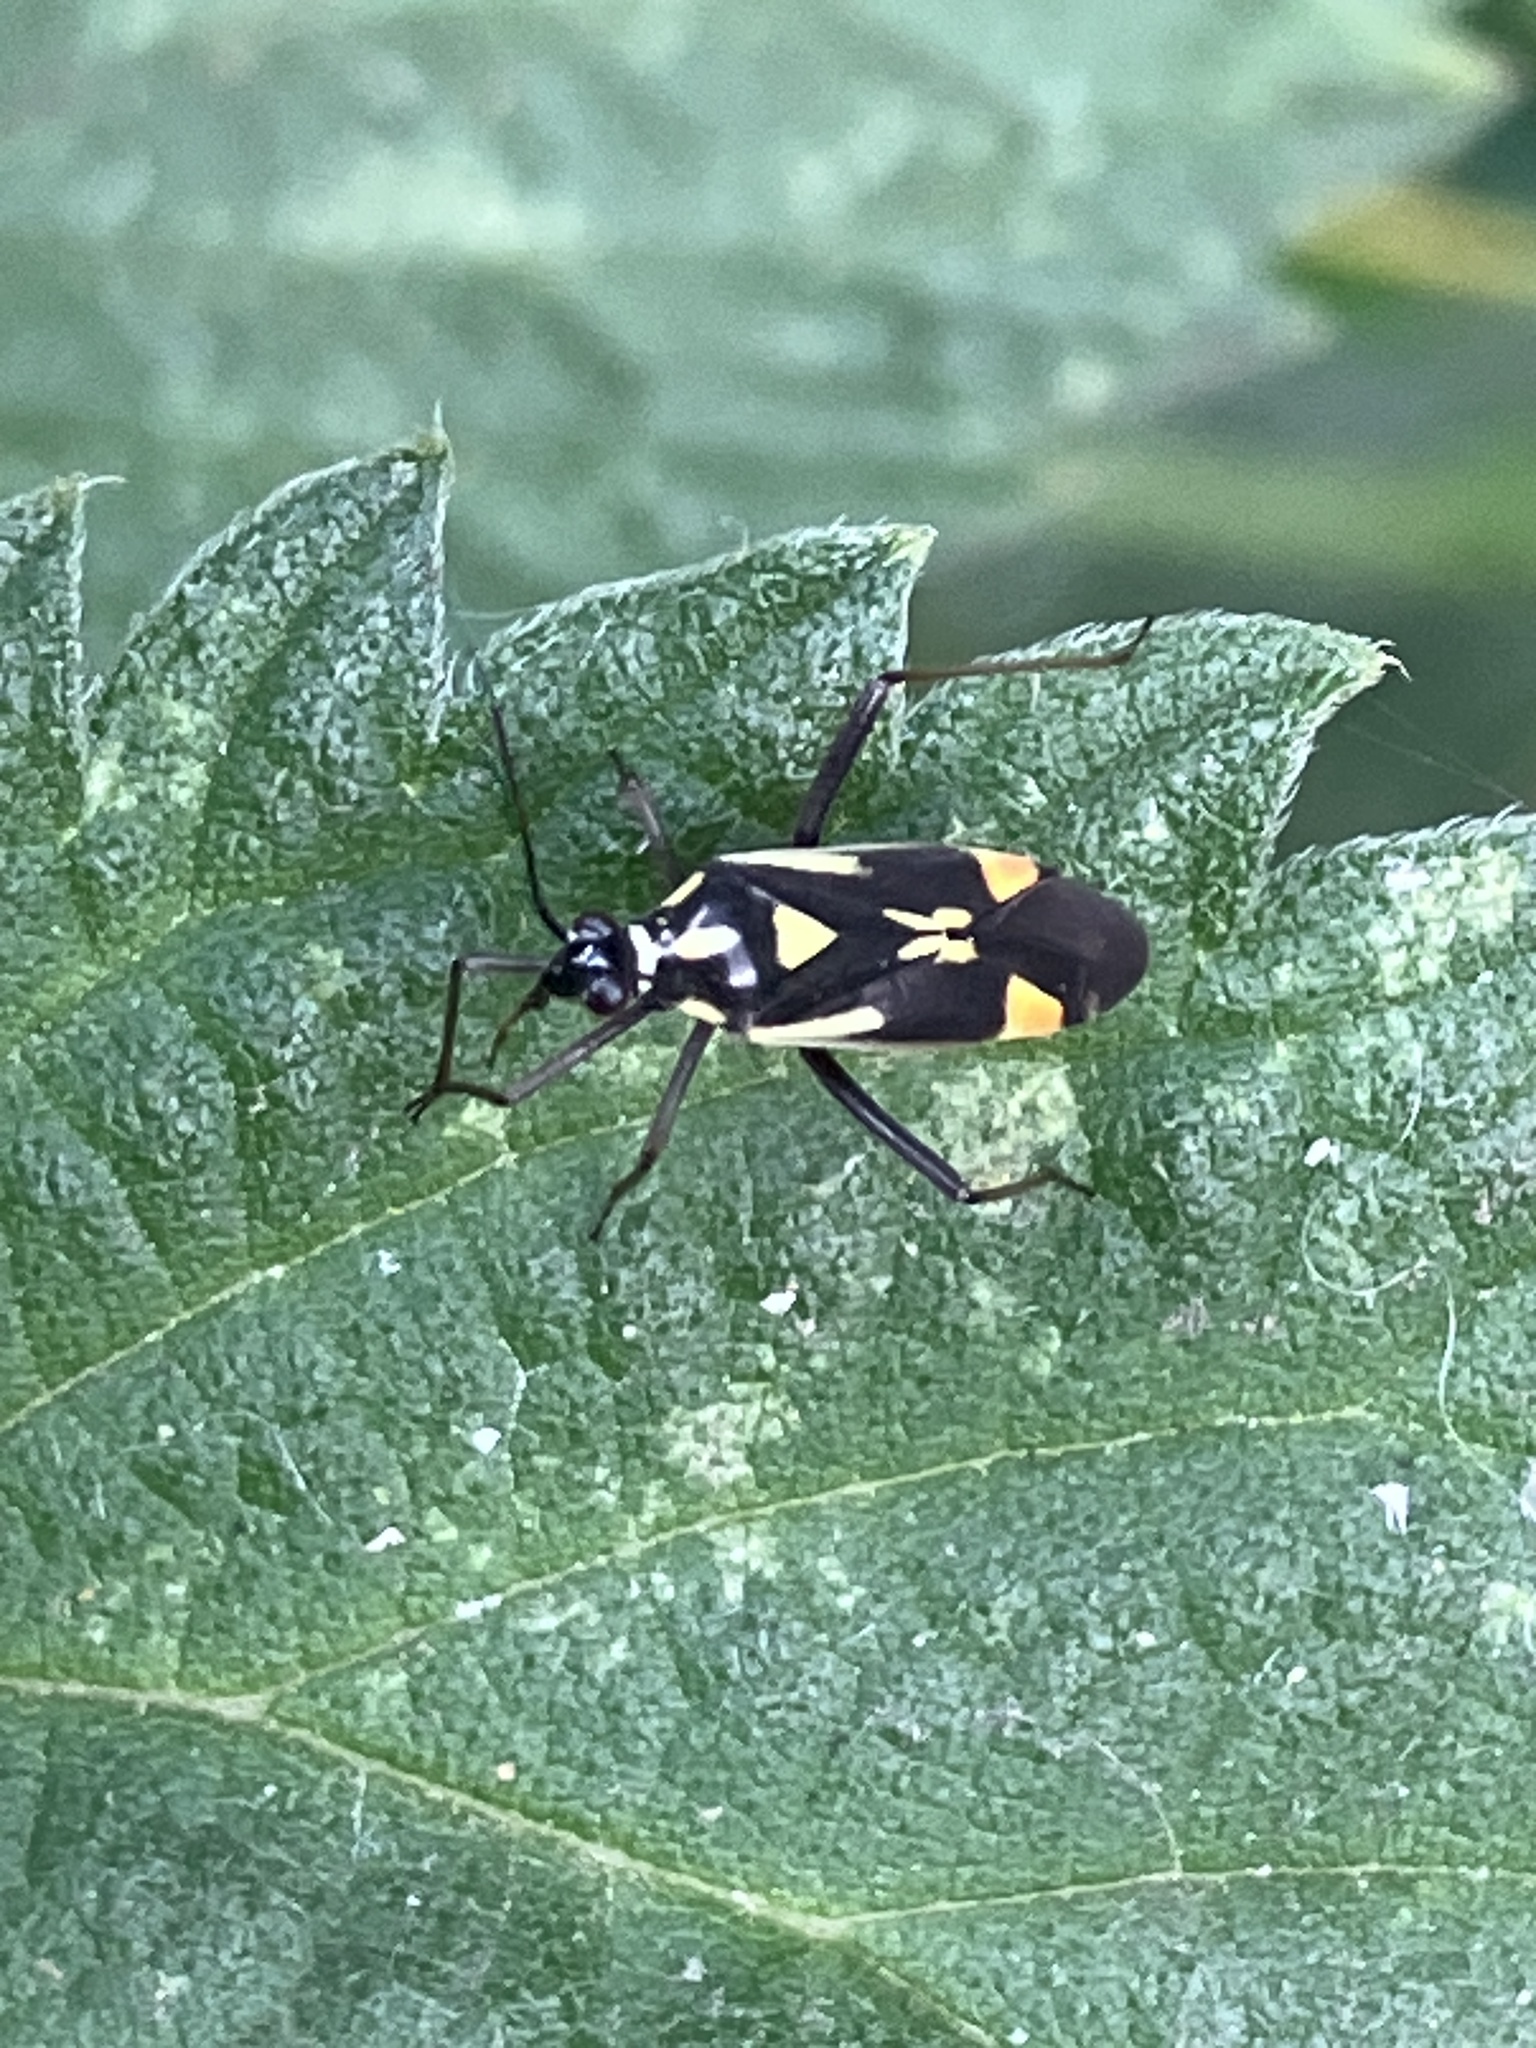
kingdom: Animalia
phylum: Arthropoda
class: Insecta
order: Hemiptera
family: Miridae
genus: Grypocoris
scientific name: Grypocoris stysi
